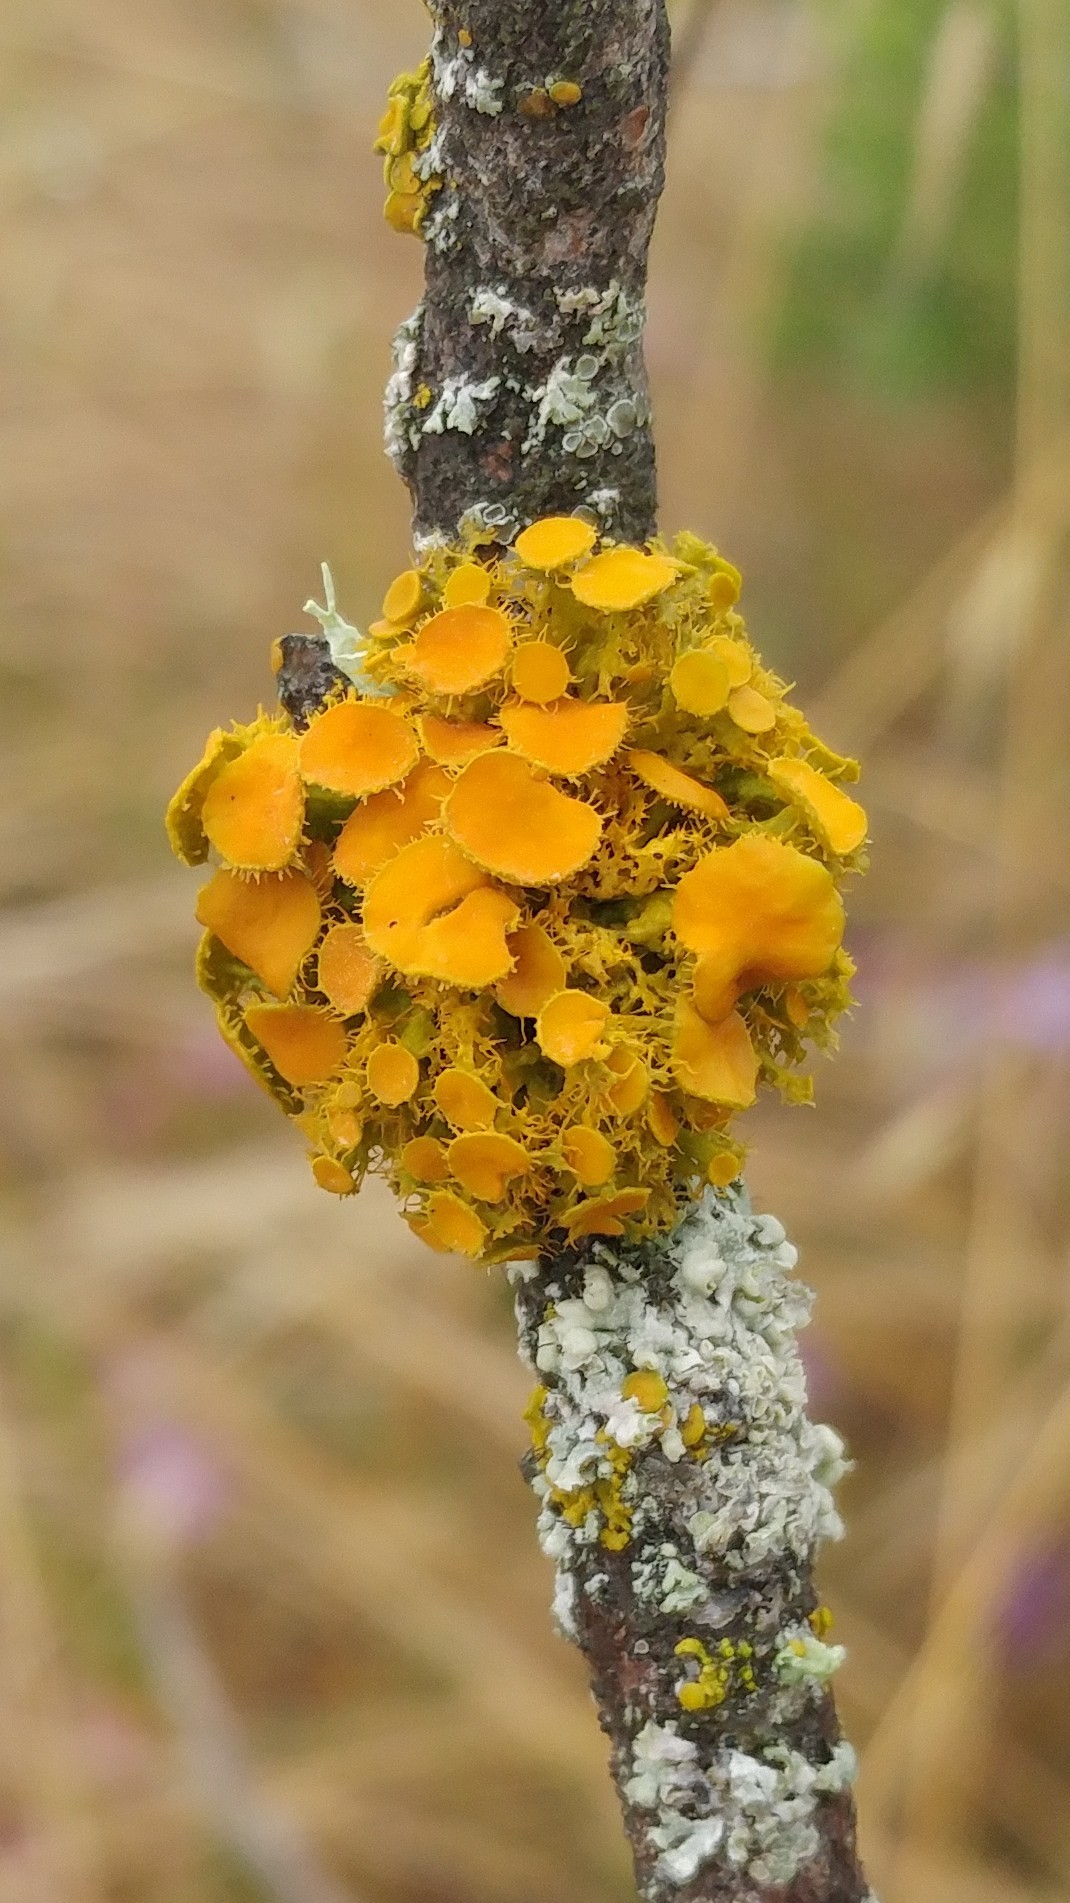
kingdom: Fungi
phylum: Ascomycota
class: Lecanoromycetes
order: Teloschistales
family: Teloschistaceae
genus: Niorma
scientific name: Niorma chrysophthalma
